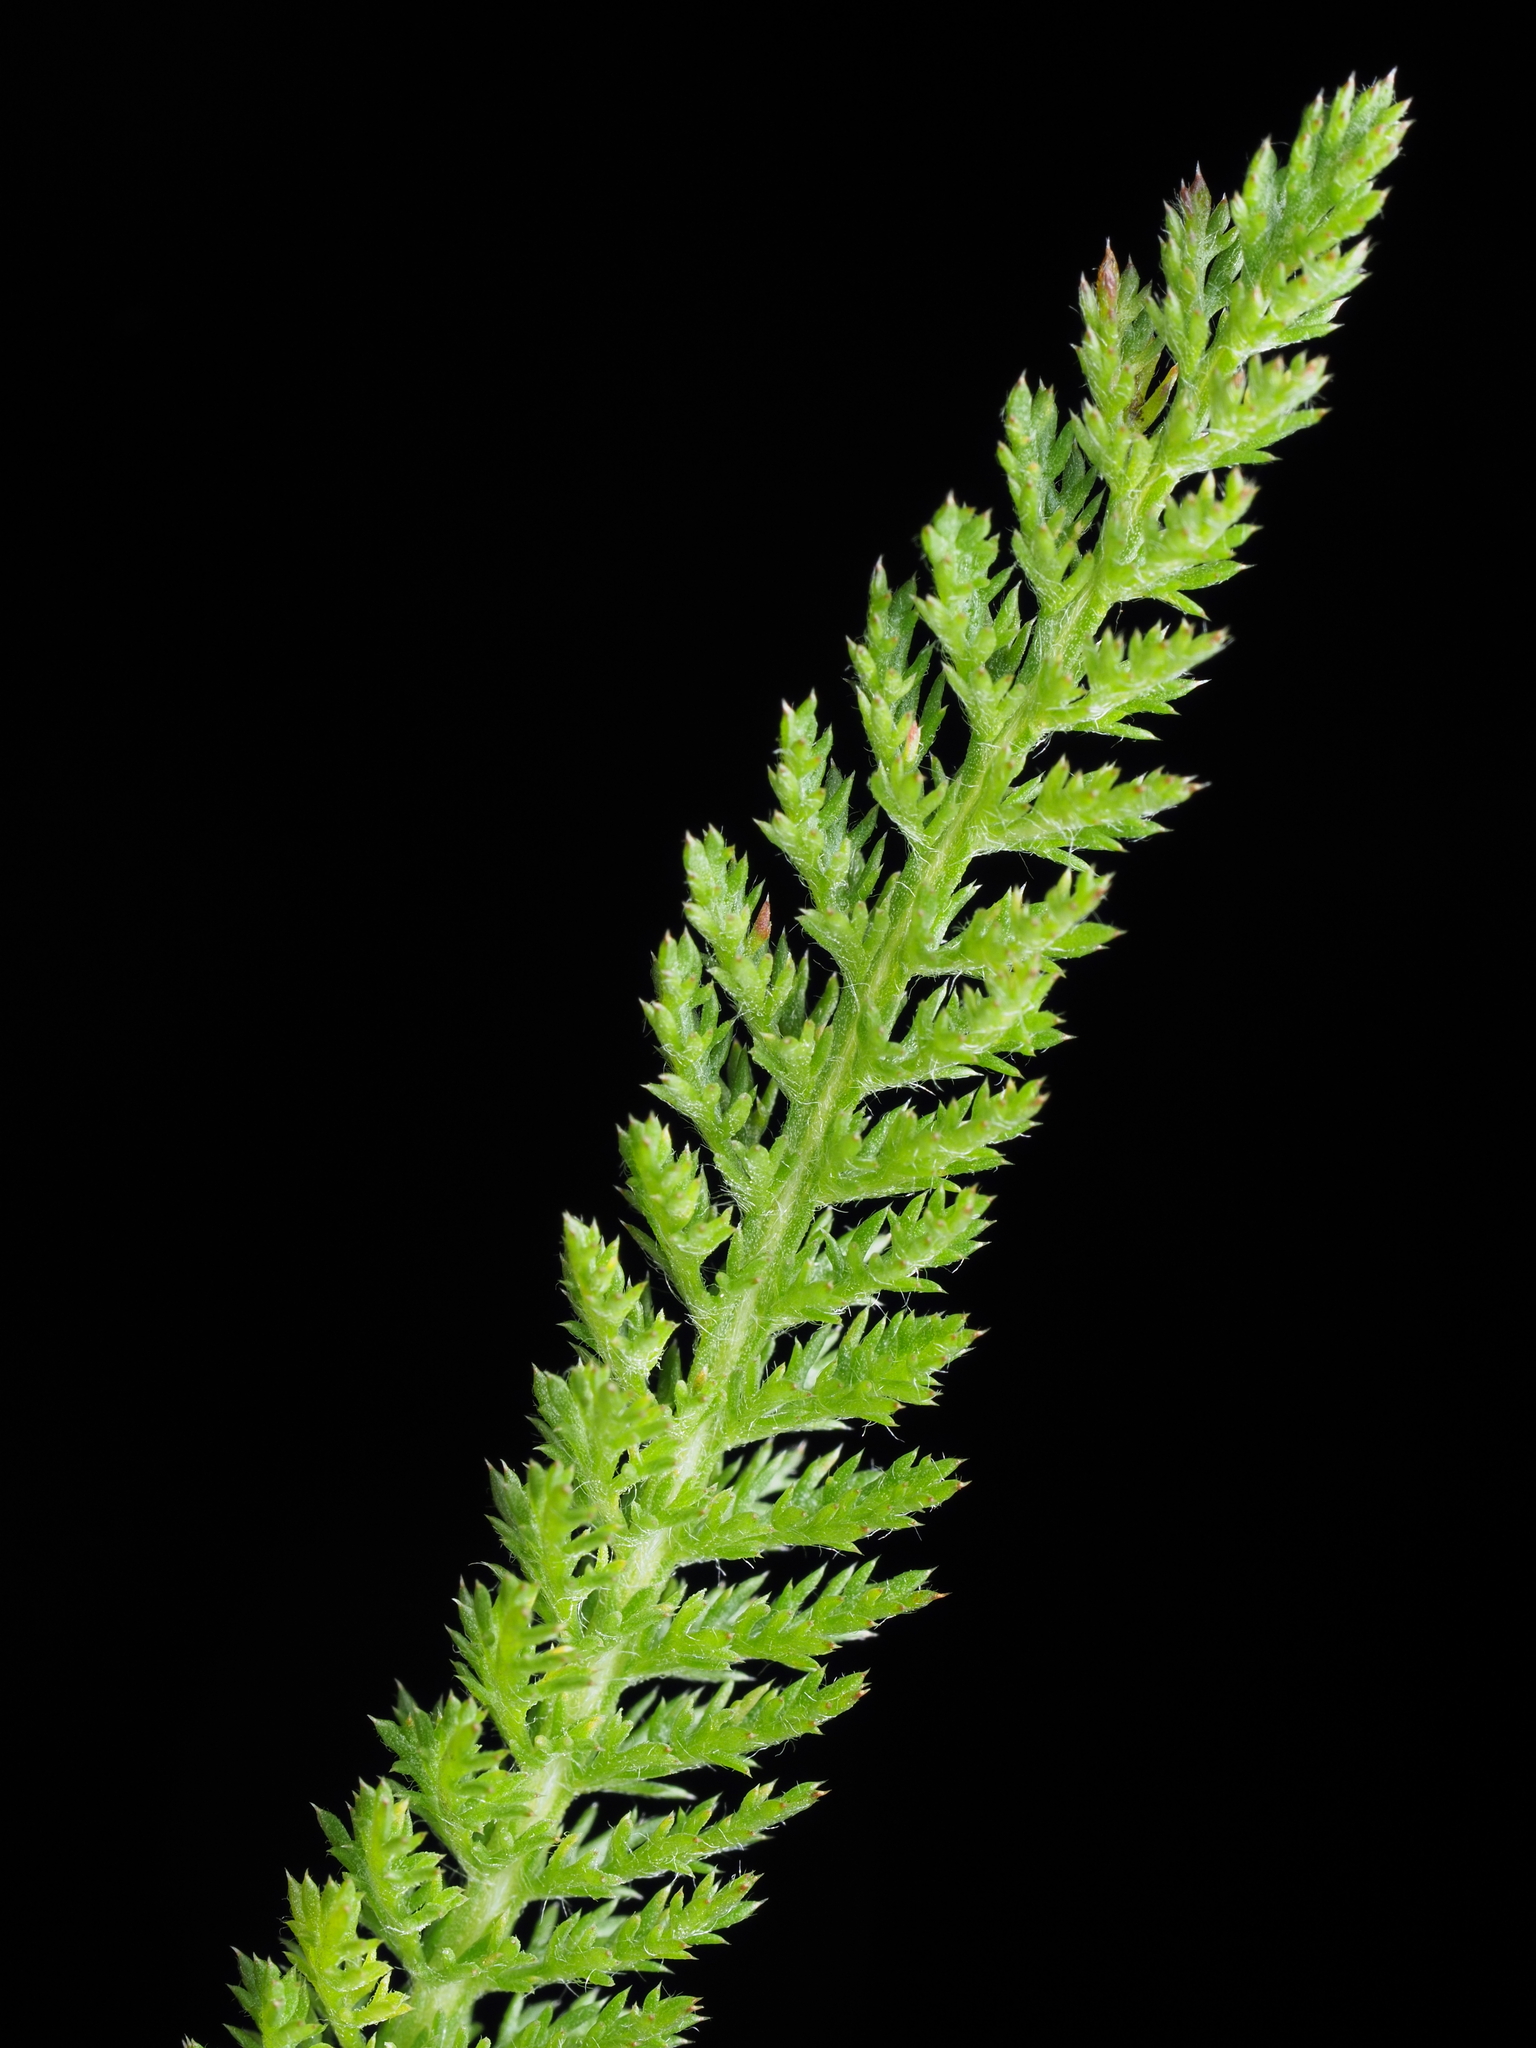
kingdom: Plantae
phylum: Tracheophyta
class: Magnoliopsida
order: Asterales
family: Asteraceae
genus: Achillea
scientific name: Achillea millefolium
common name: Yarrow
